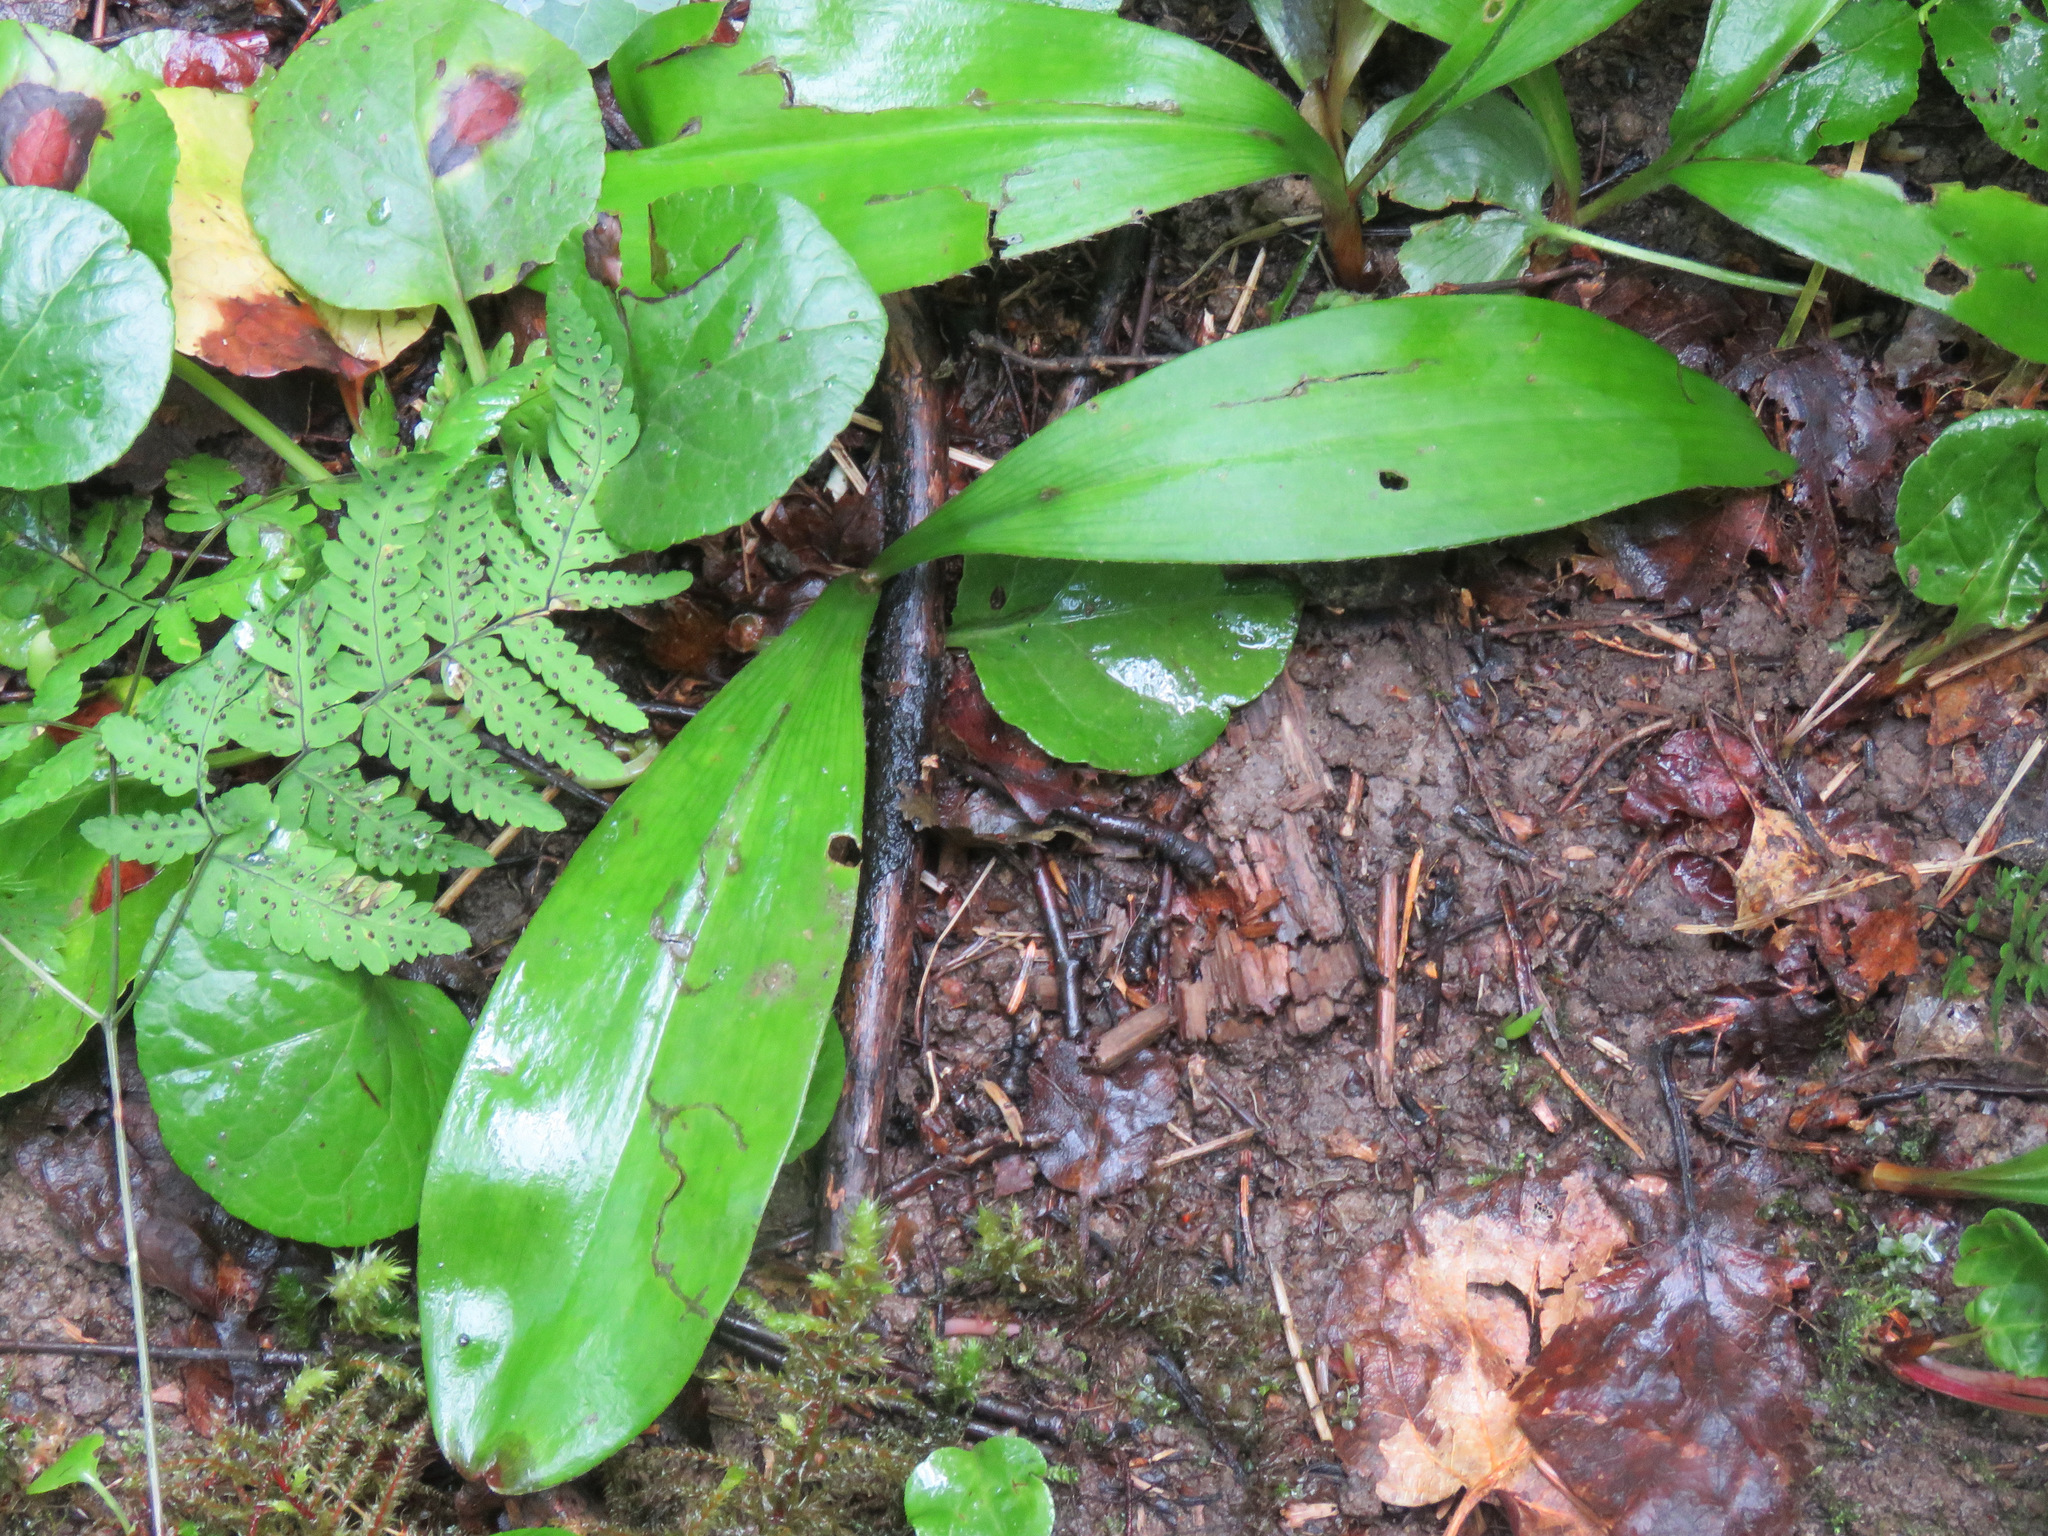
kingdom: Plantae
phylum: Tracheophyta
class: Liliopsida
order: Liliales
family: Liliaceae
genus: Clintonia
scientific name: Clintonia uniflora
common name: Queen's cup
